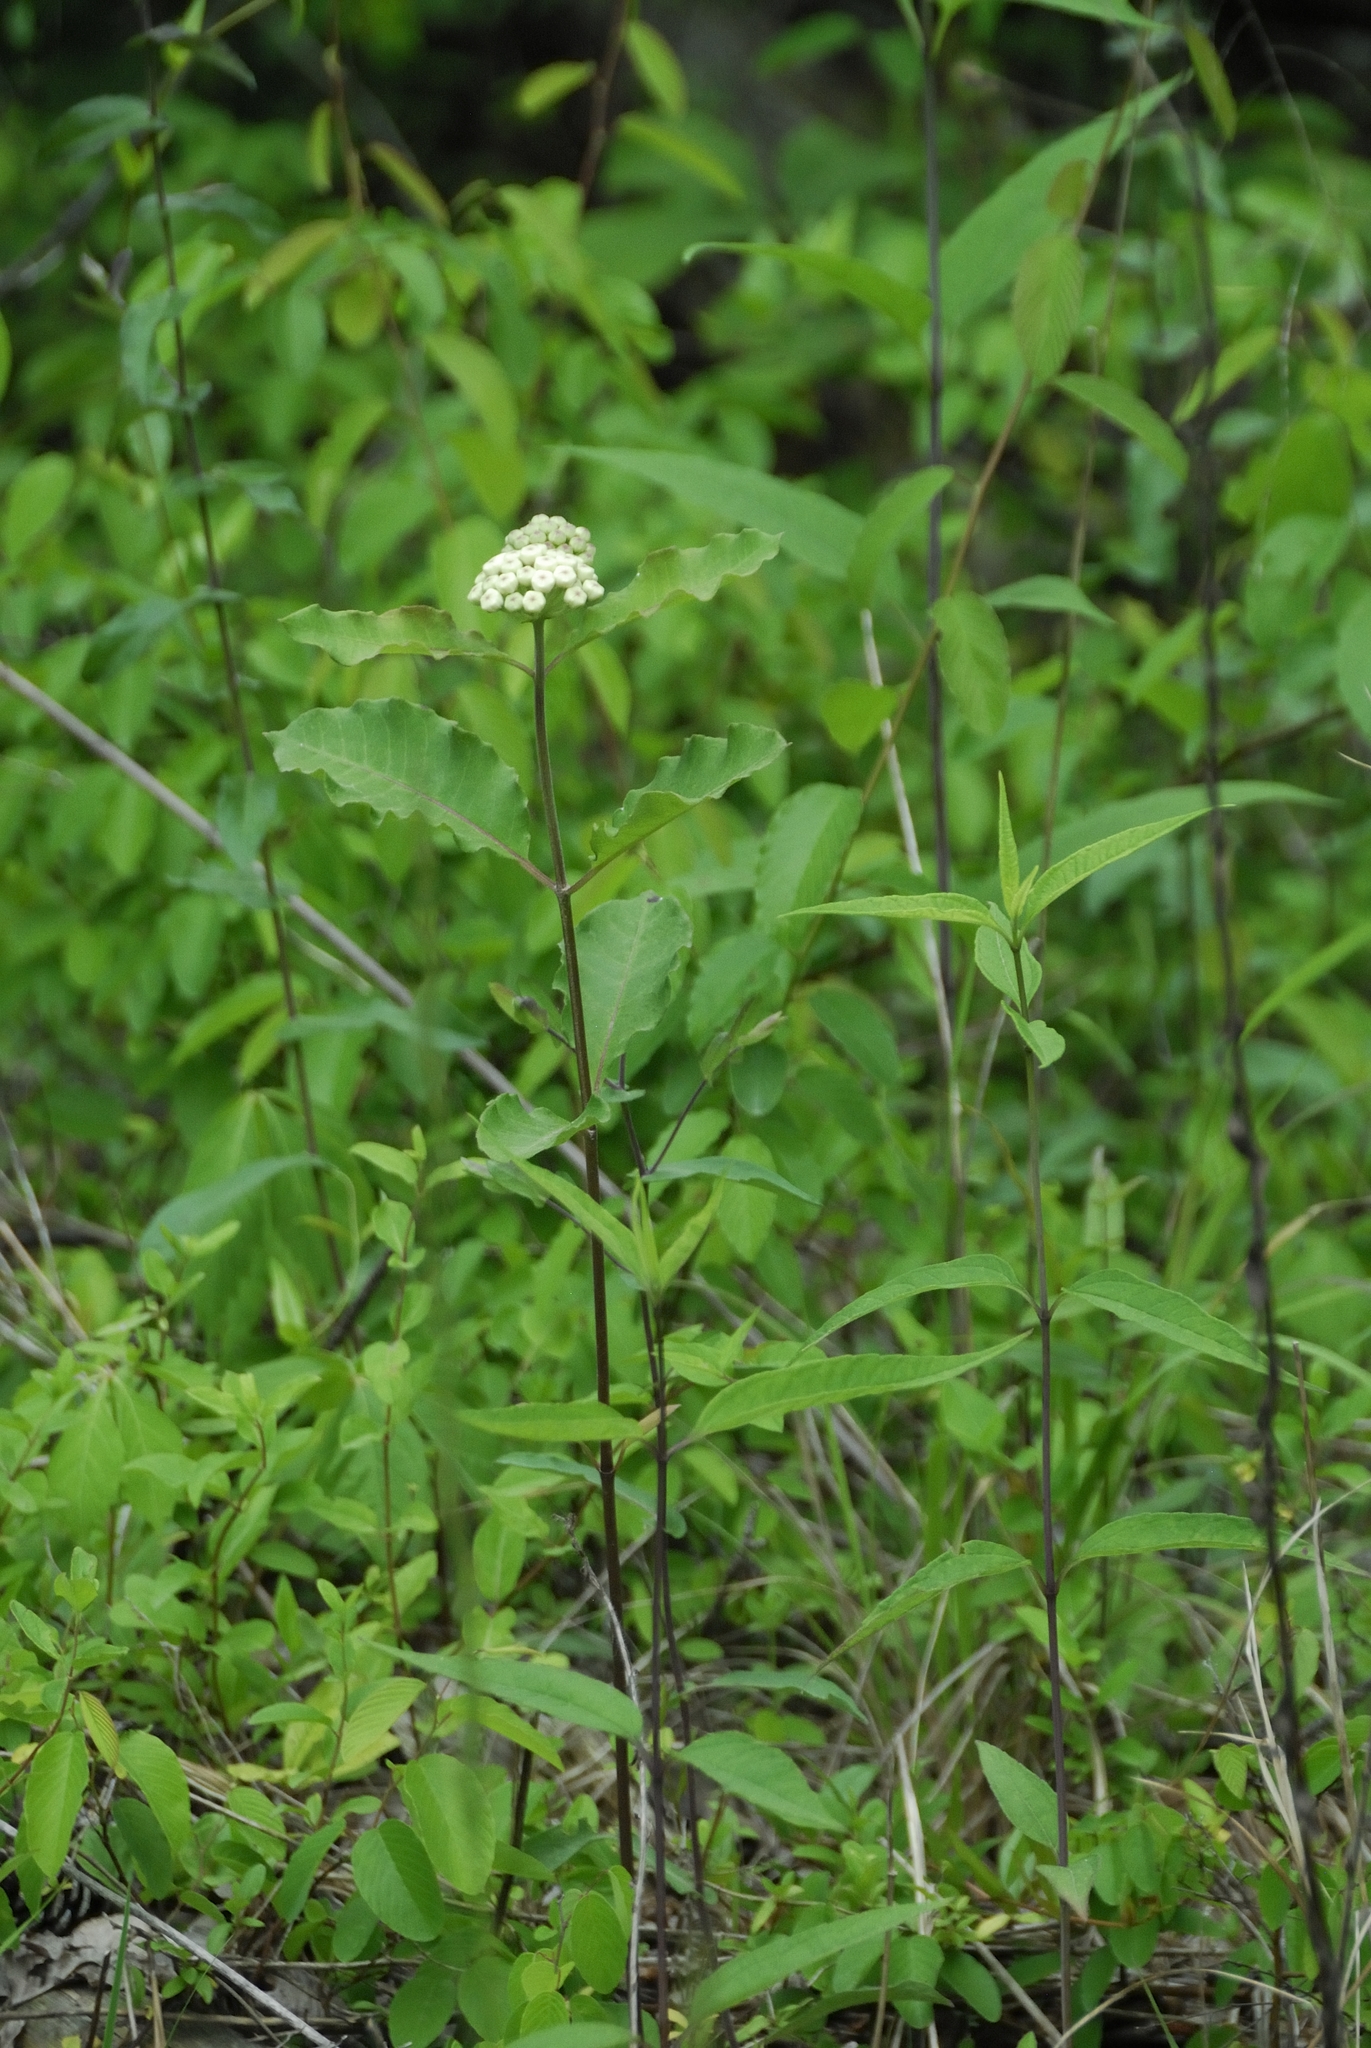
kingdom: Plantae
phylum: Tracheophyta
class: Magnoliopsida
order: Gentianales
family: Apocynaceae
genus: Asclepias
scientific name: Asclepias variegata
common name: Variegated milkweed
